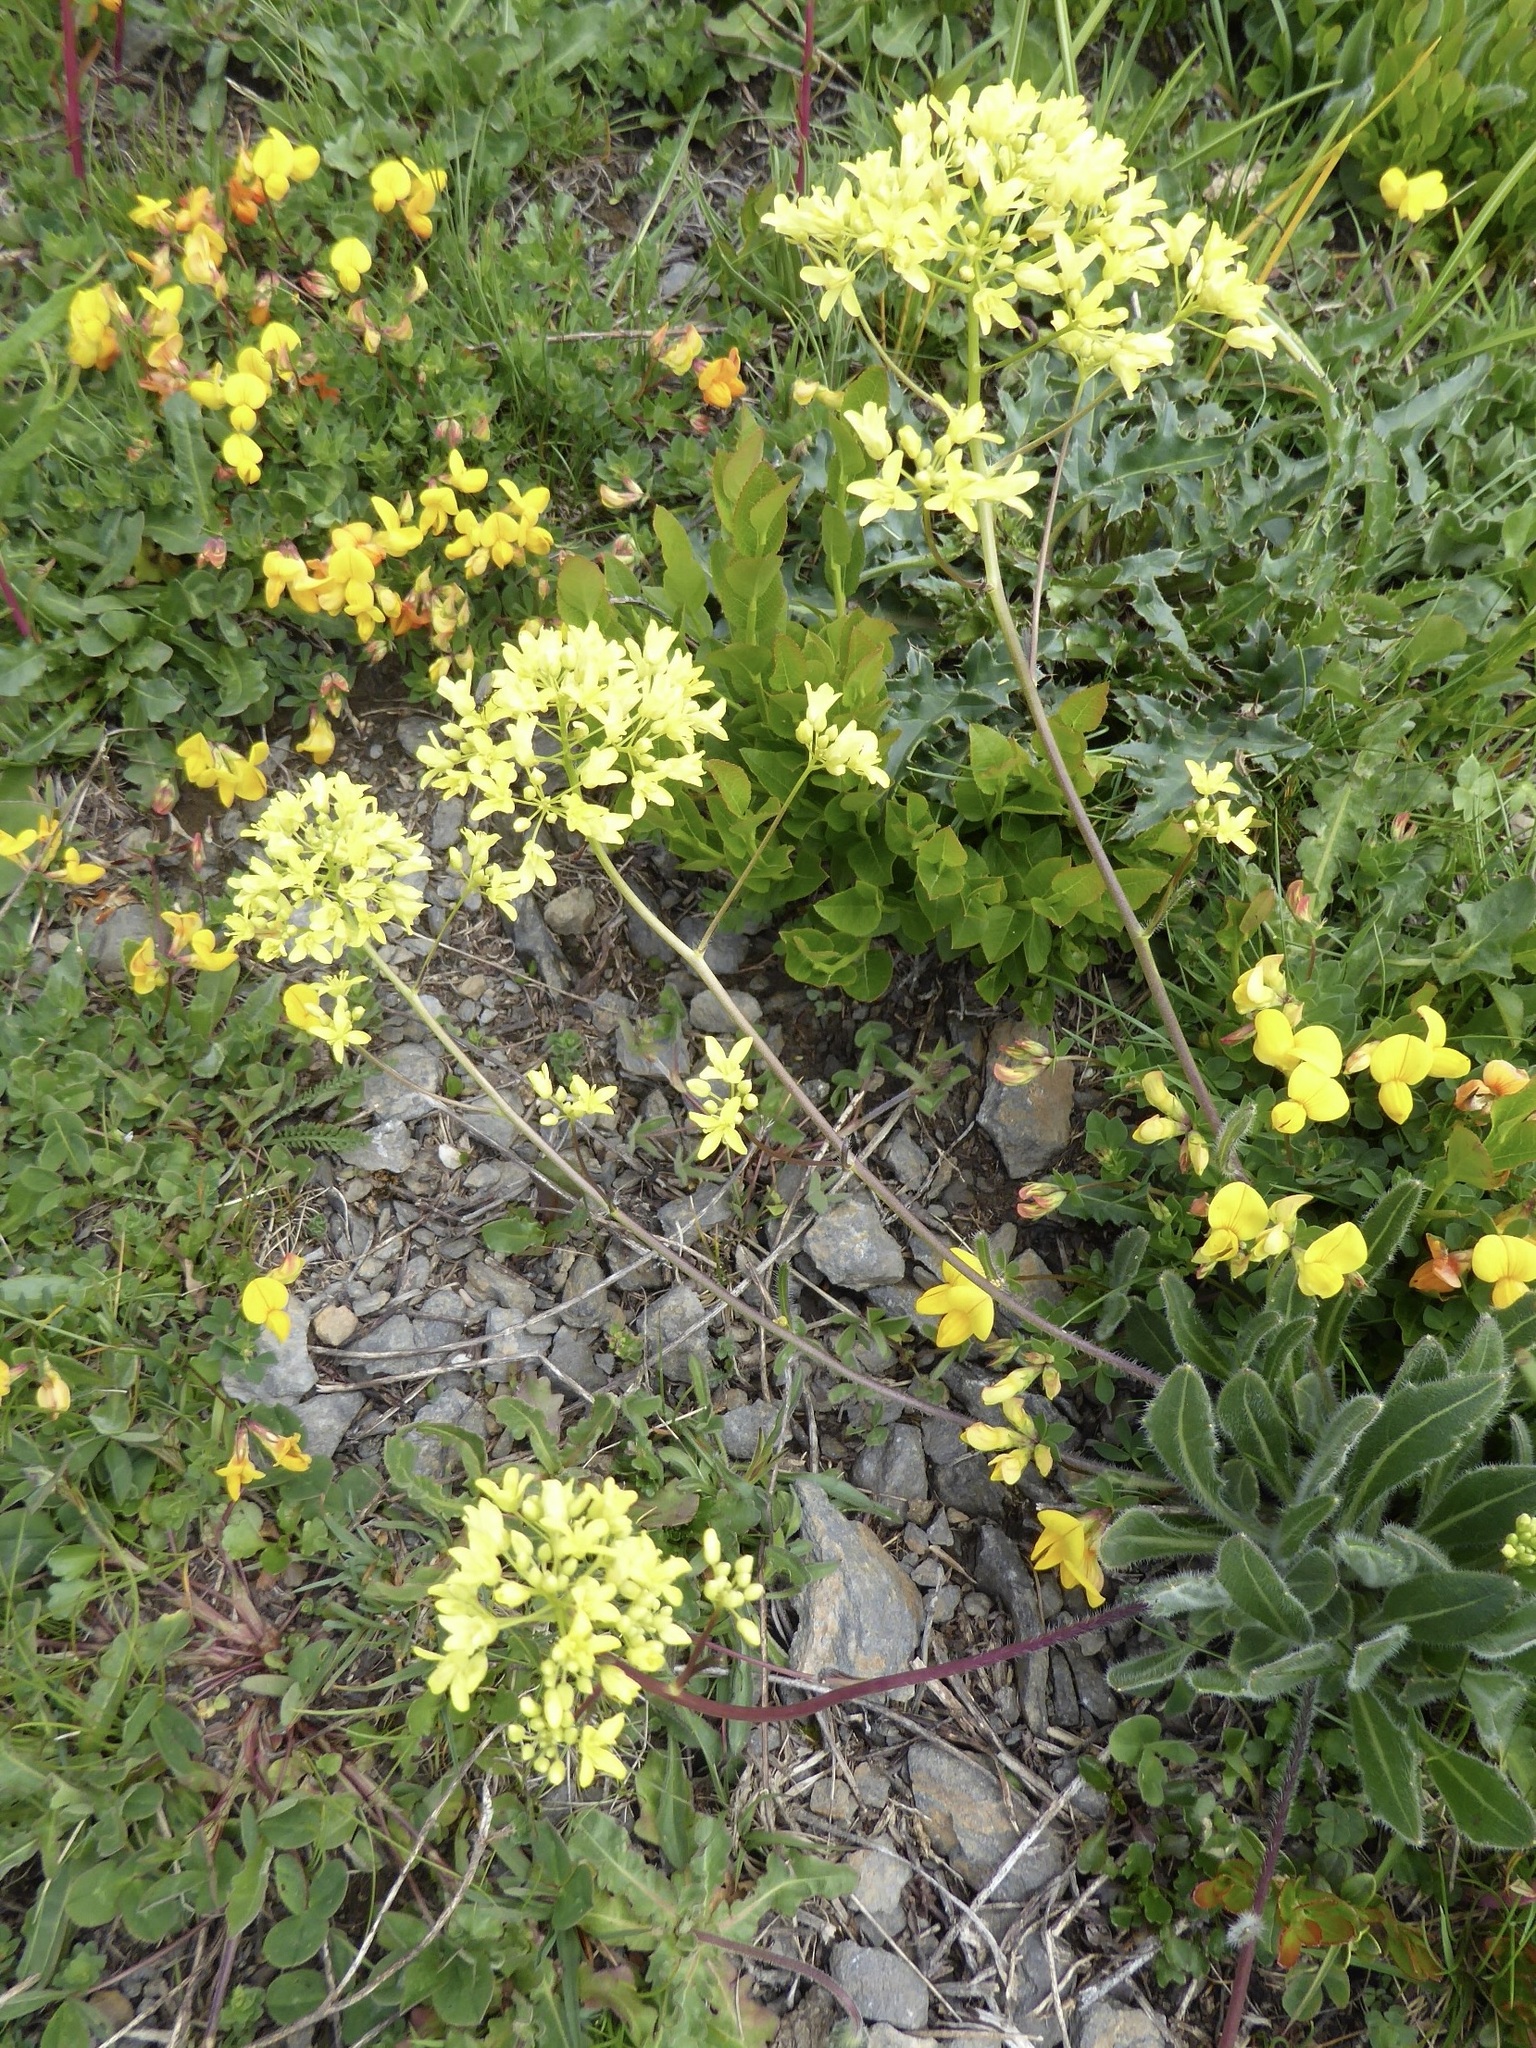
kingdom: Plantae
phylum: Tracheophyta
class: Magnoliopsida
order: Brassicales
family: Brassicaceae
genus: Biscutella
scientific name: Biscutella laevigata
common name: Buckler mustard
